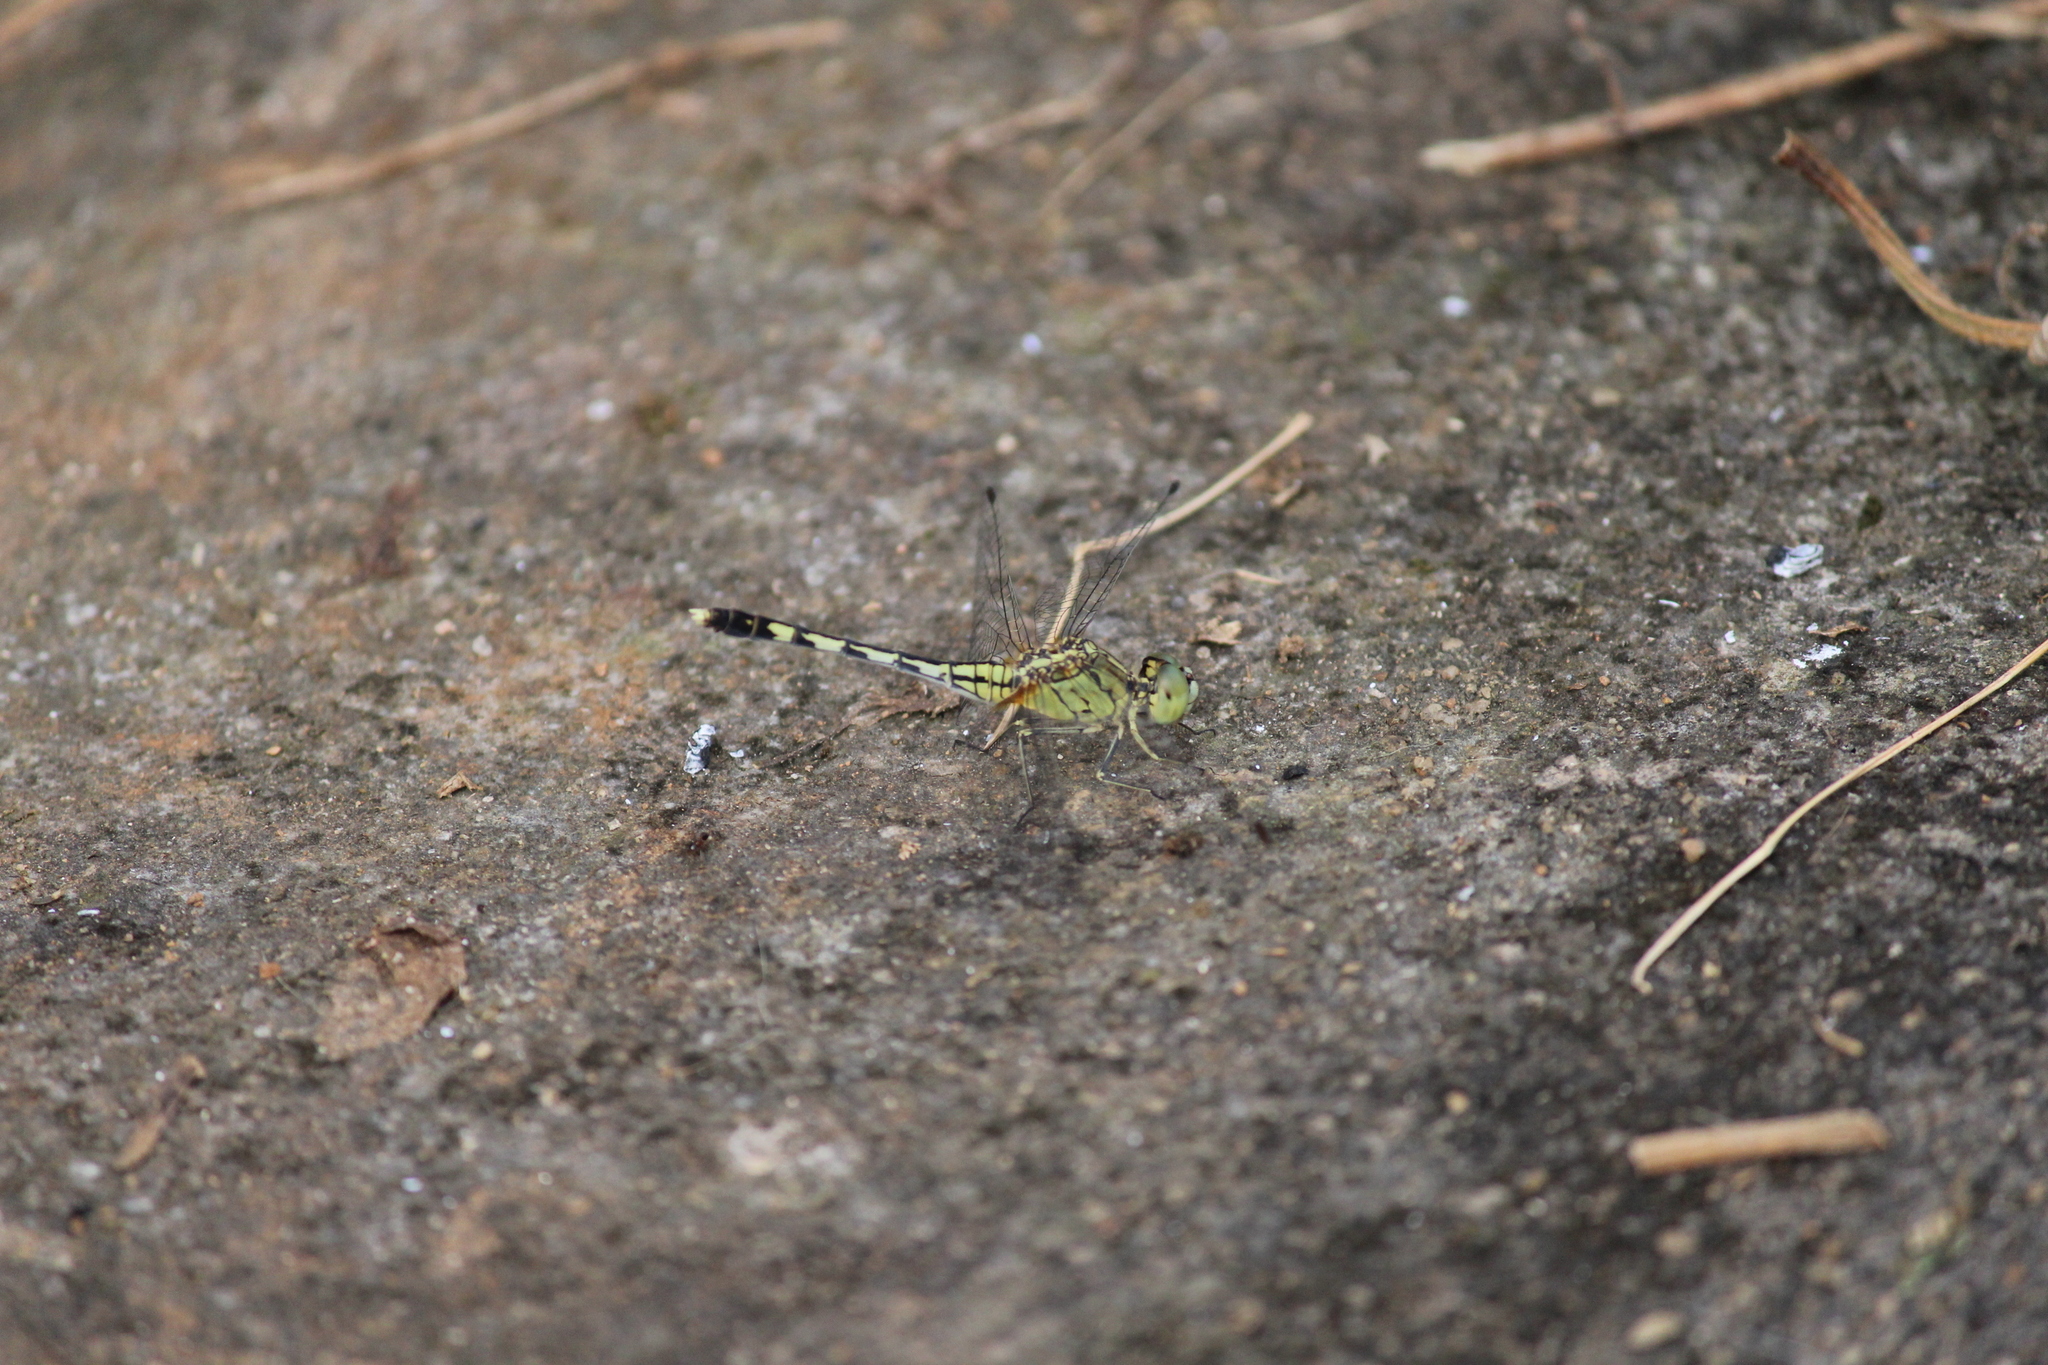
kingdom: Animalia
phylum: Arthropoda
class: Insecta
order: Odonata
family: Libellulidae
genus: Diplacodes
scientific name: Diplacodes trivialis
